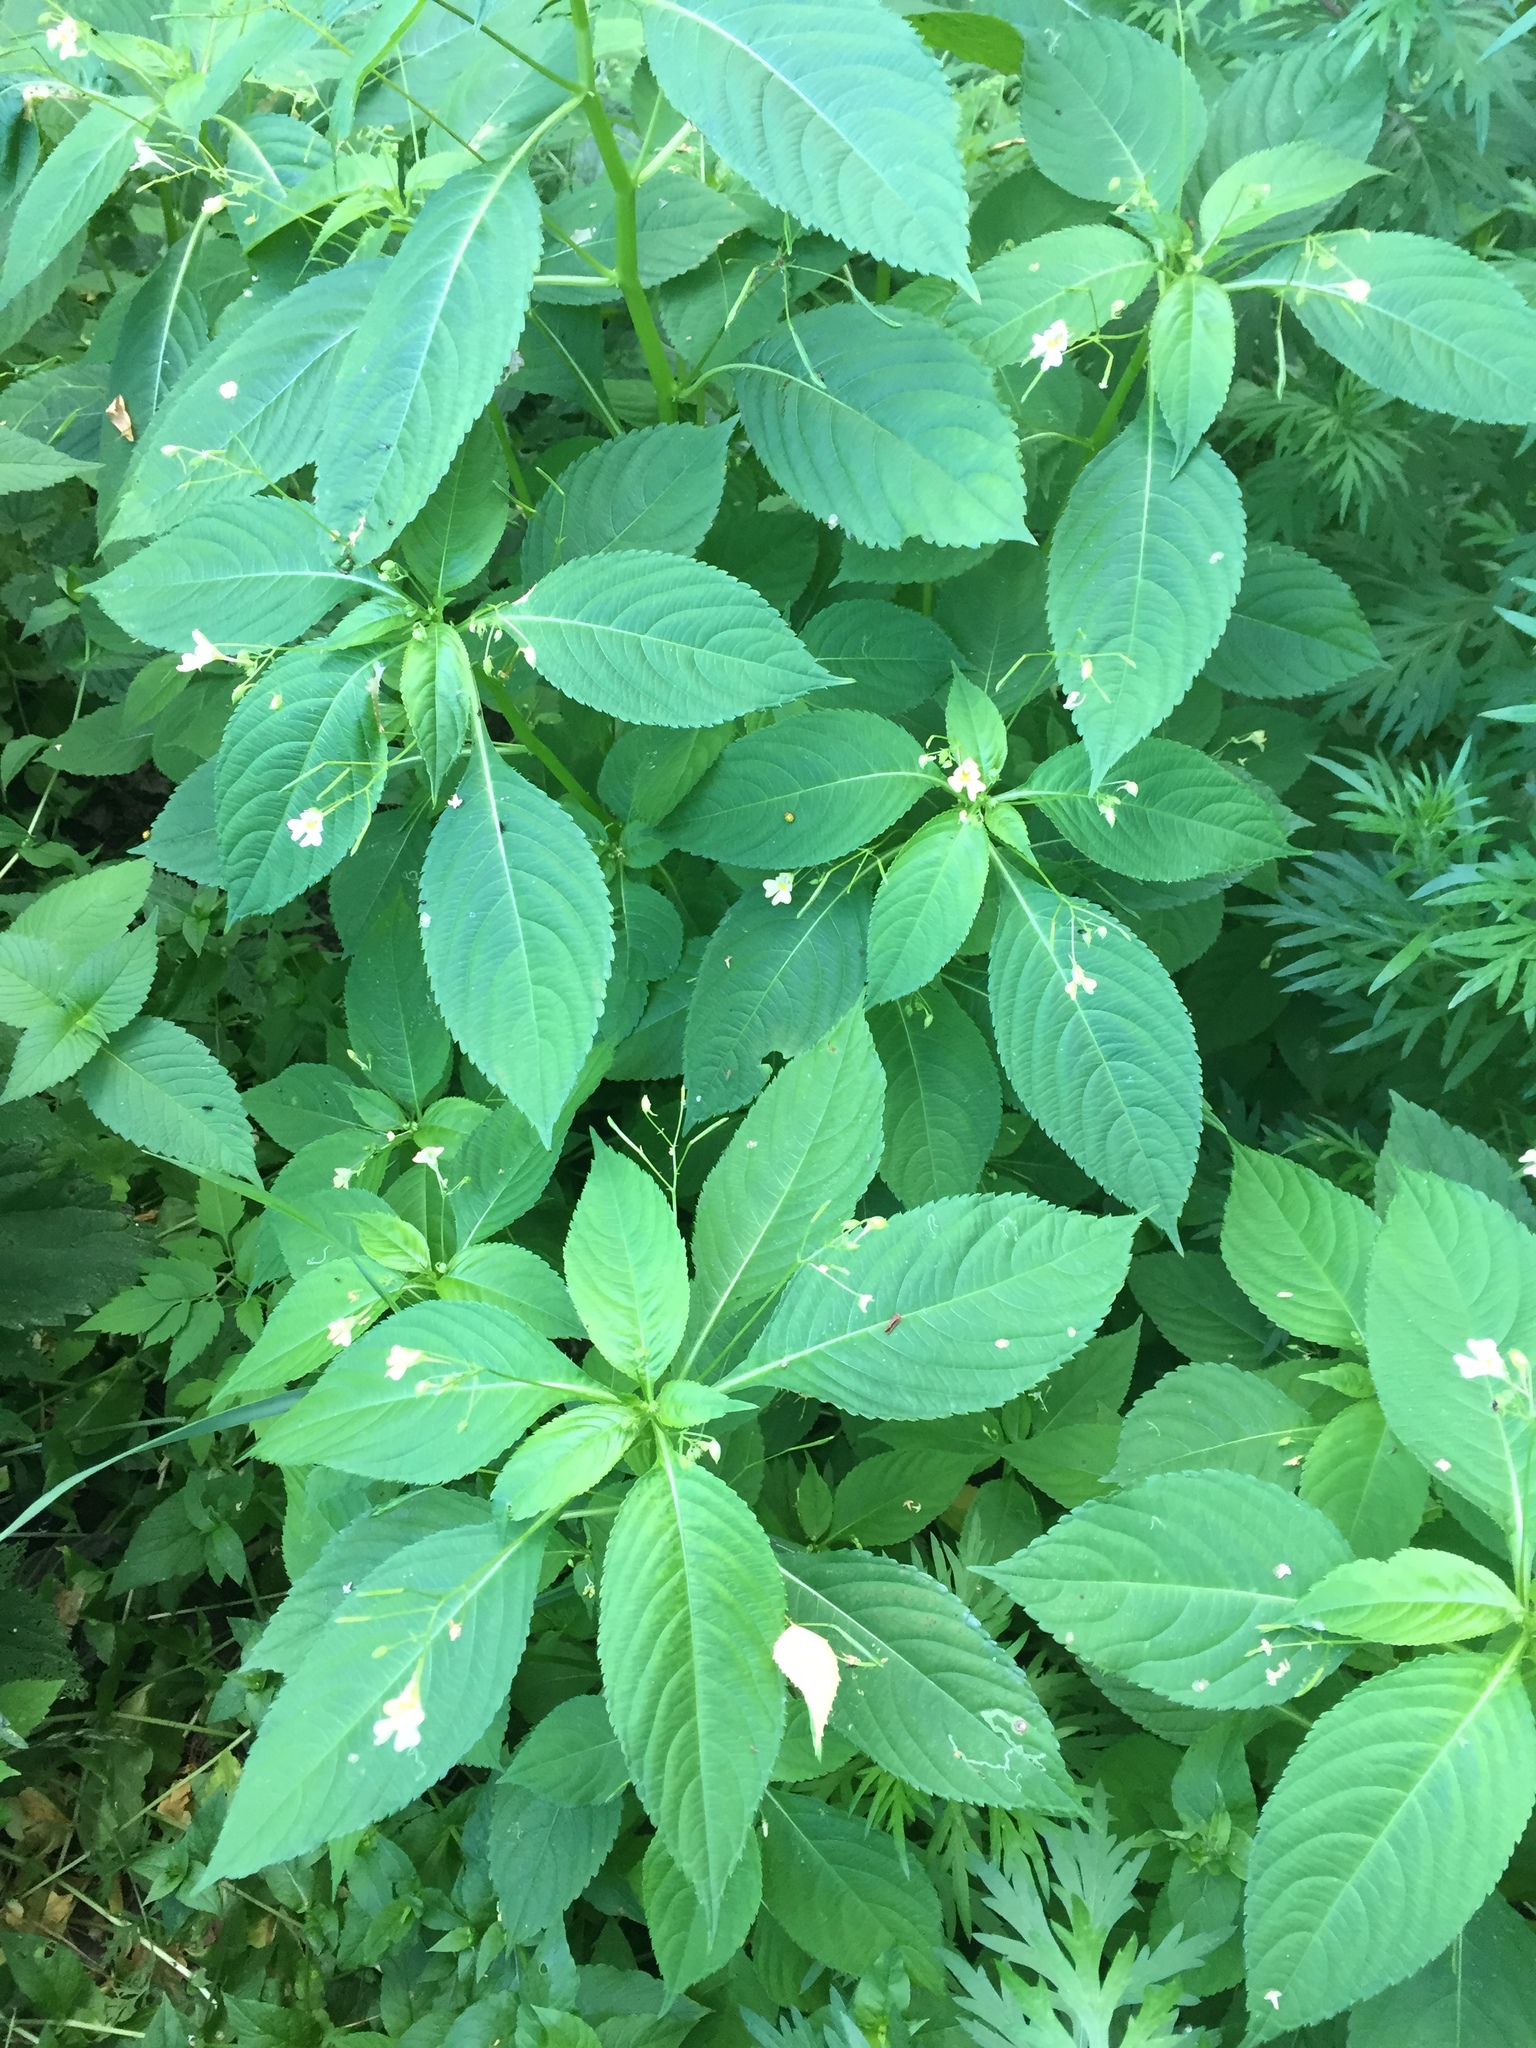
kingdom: Plantae
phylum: Tracheophyta
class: Magnoliopsida
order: Ericales
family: Balsaminaceae
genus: Impatiens
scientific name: Impatiens parviflora
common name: Small balsam
